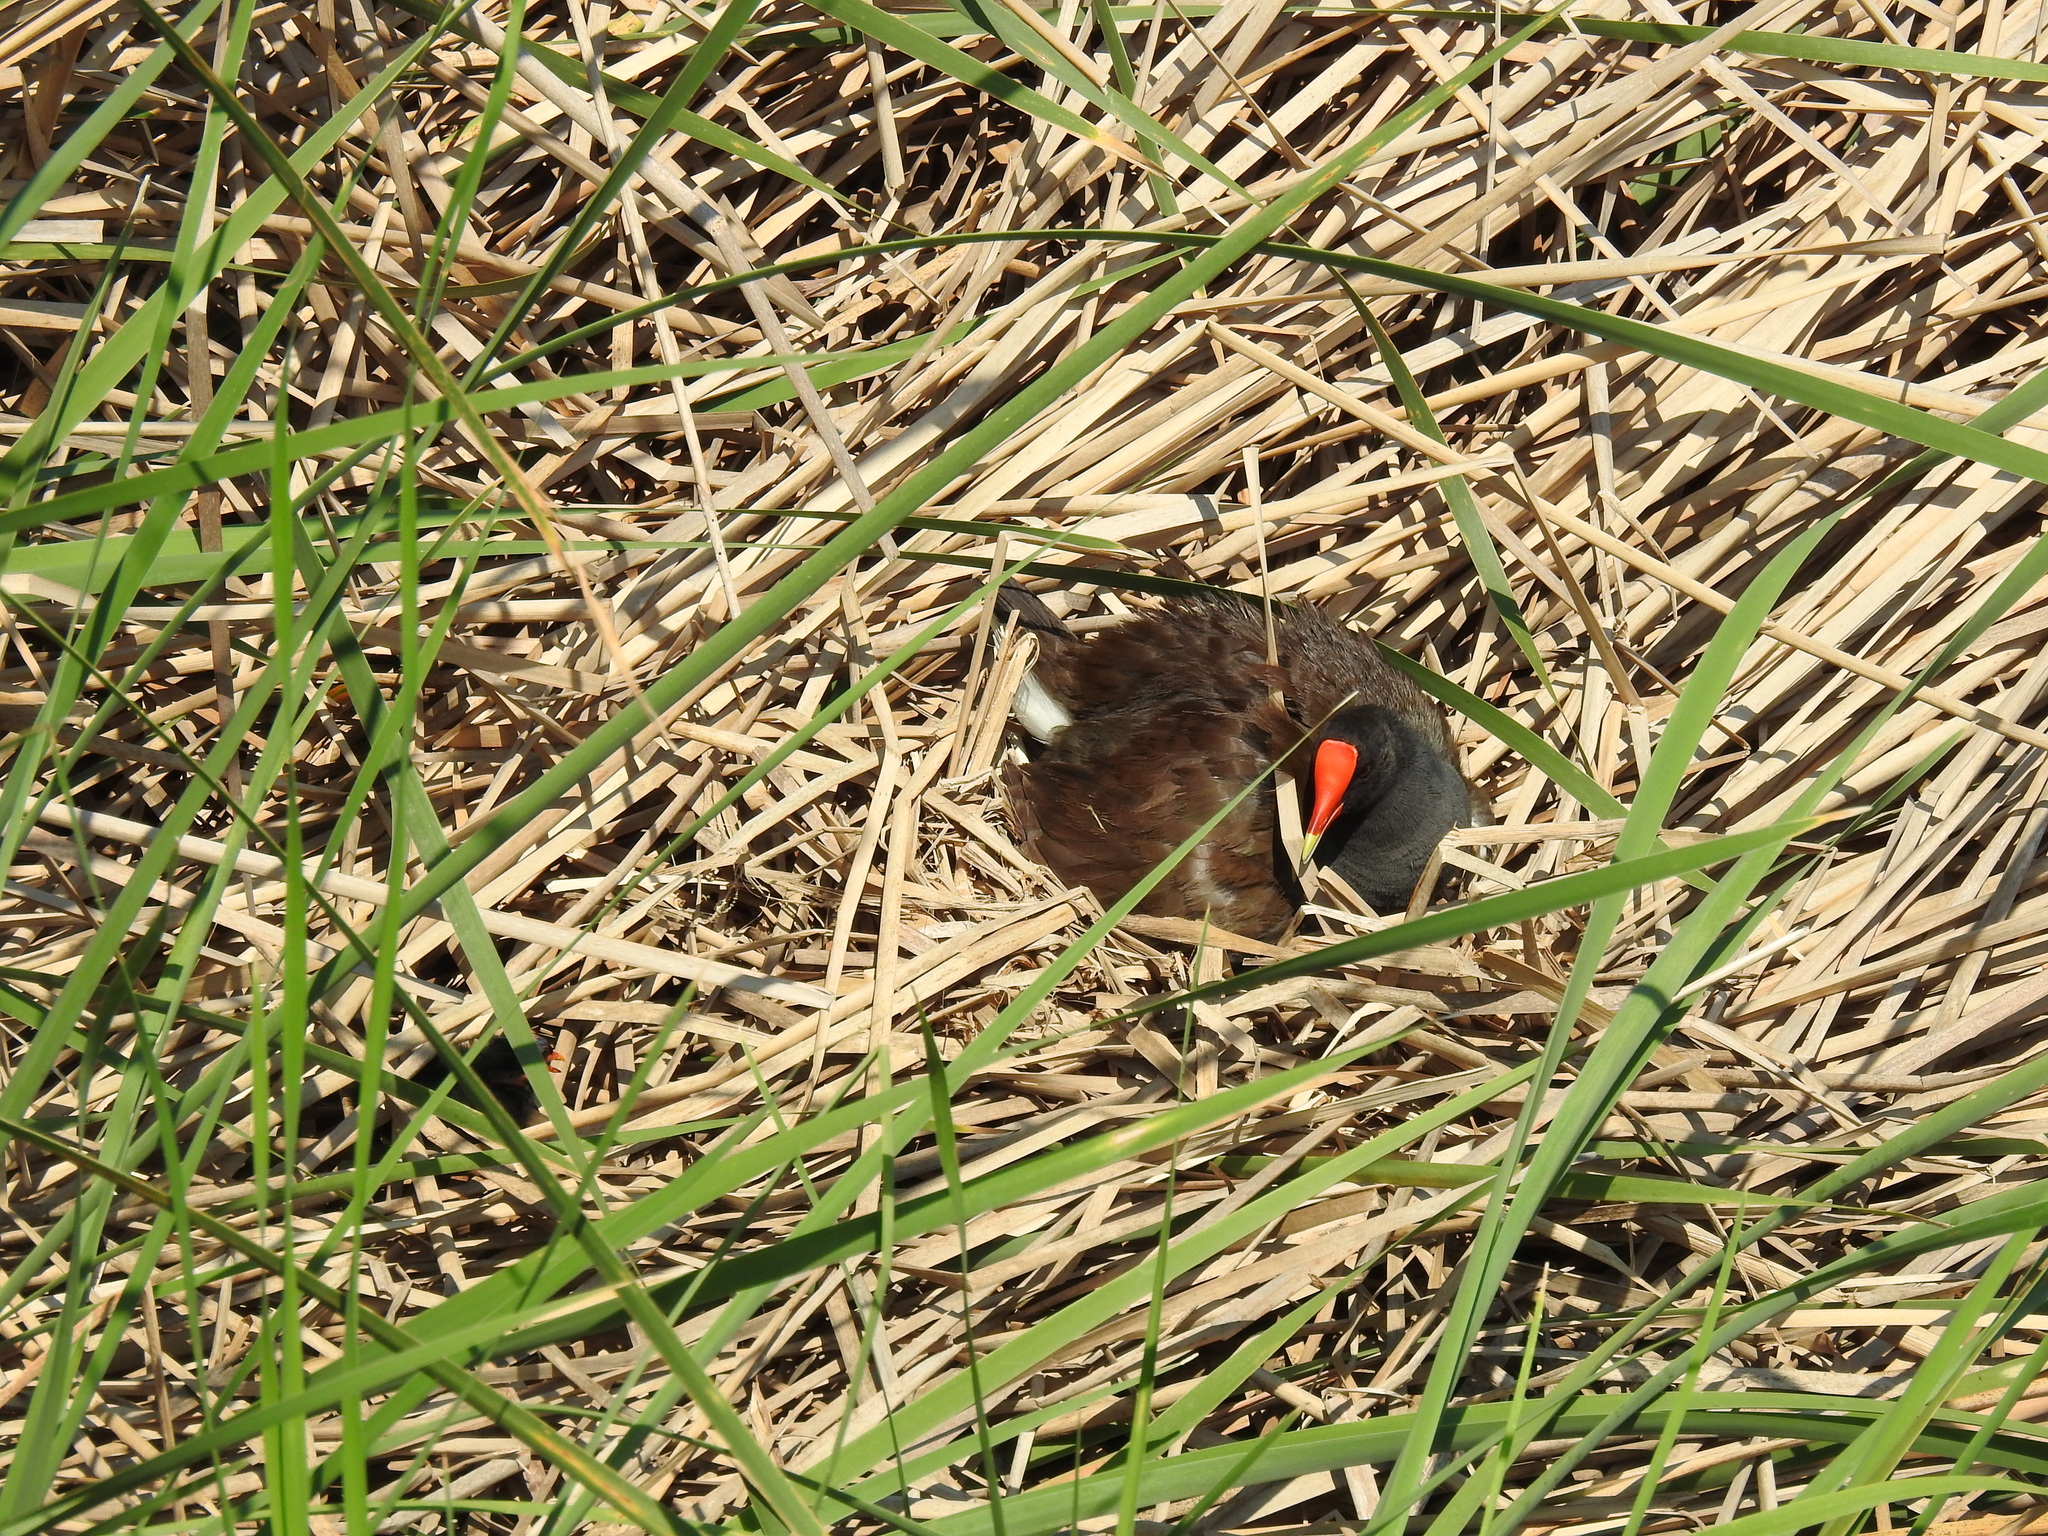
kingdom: Animalia
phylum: Chordata
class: Aves
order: Gruiformes
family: Rallidae
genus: Gallinula
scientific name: Gallinula chloropus
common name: Common moorhen
